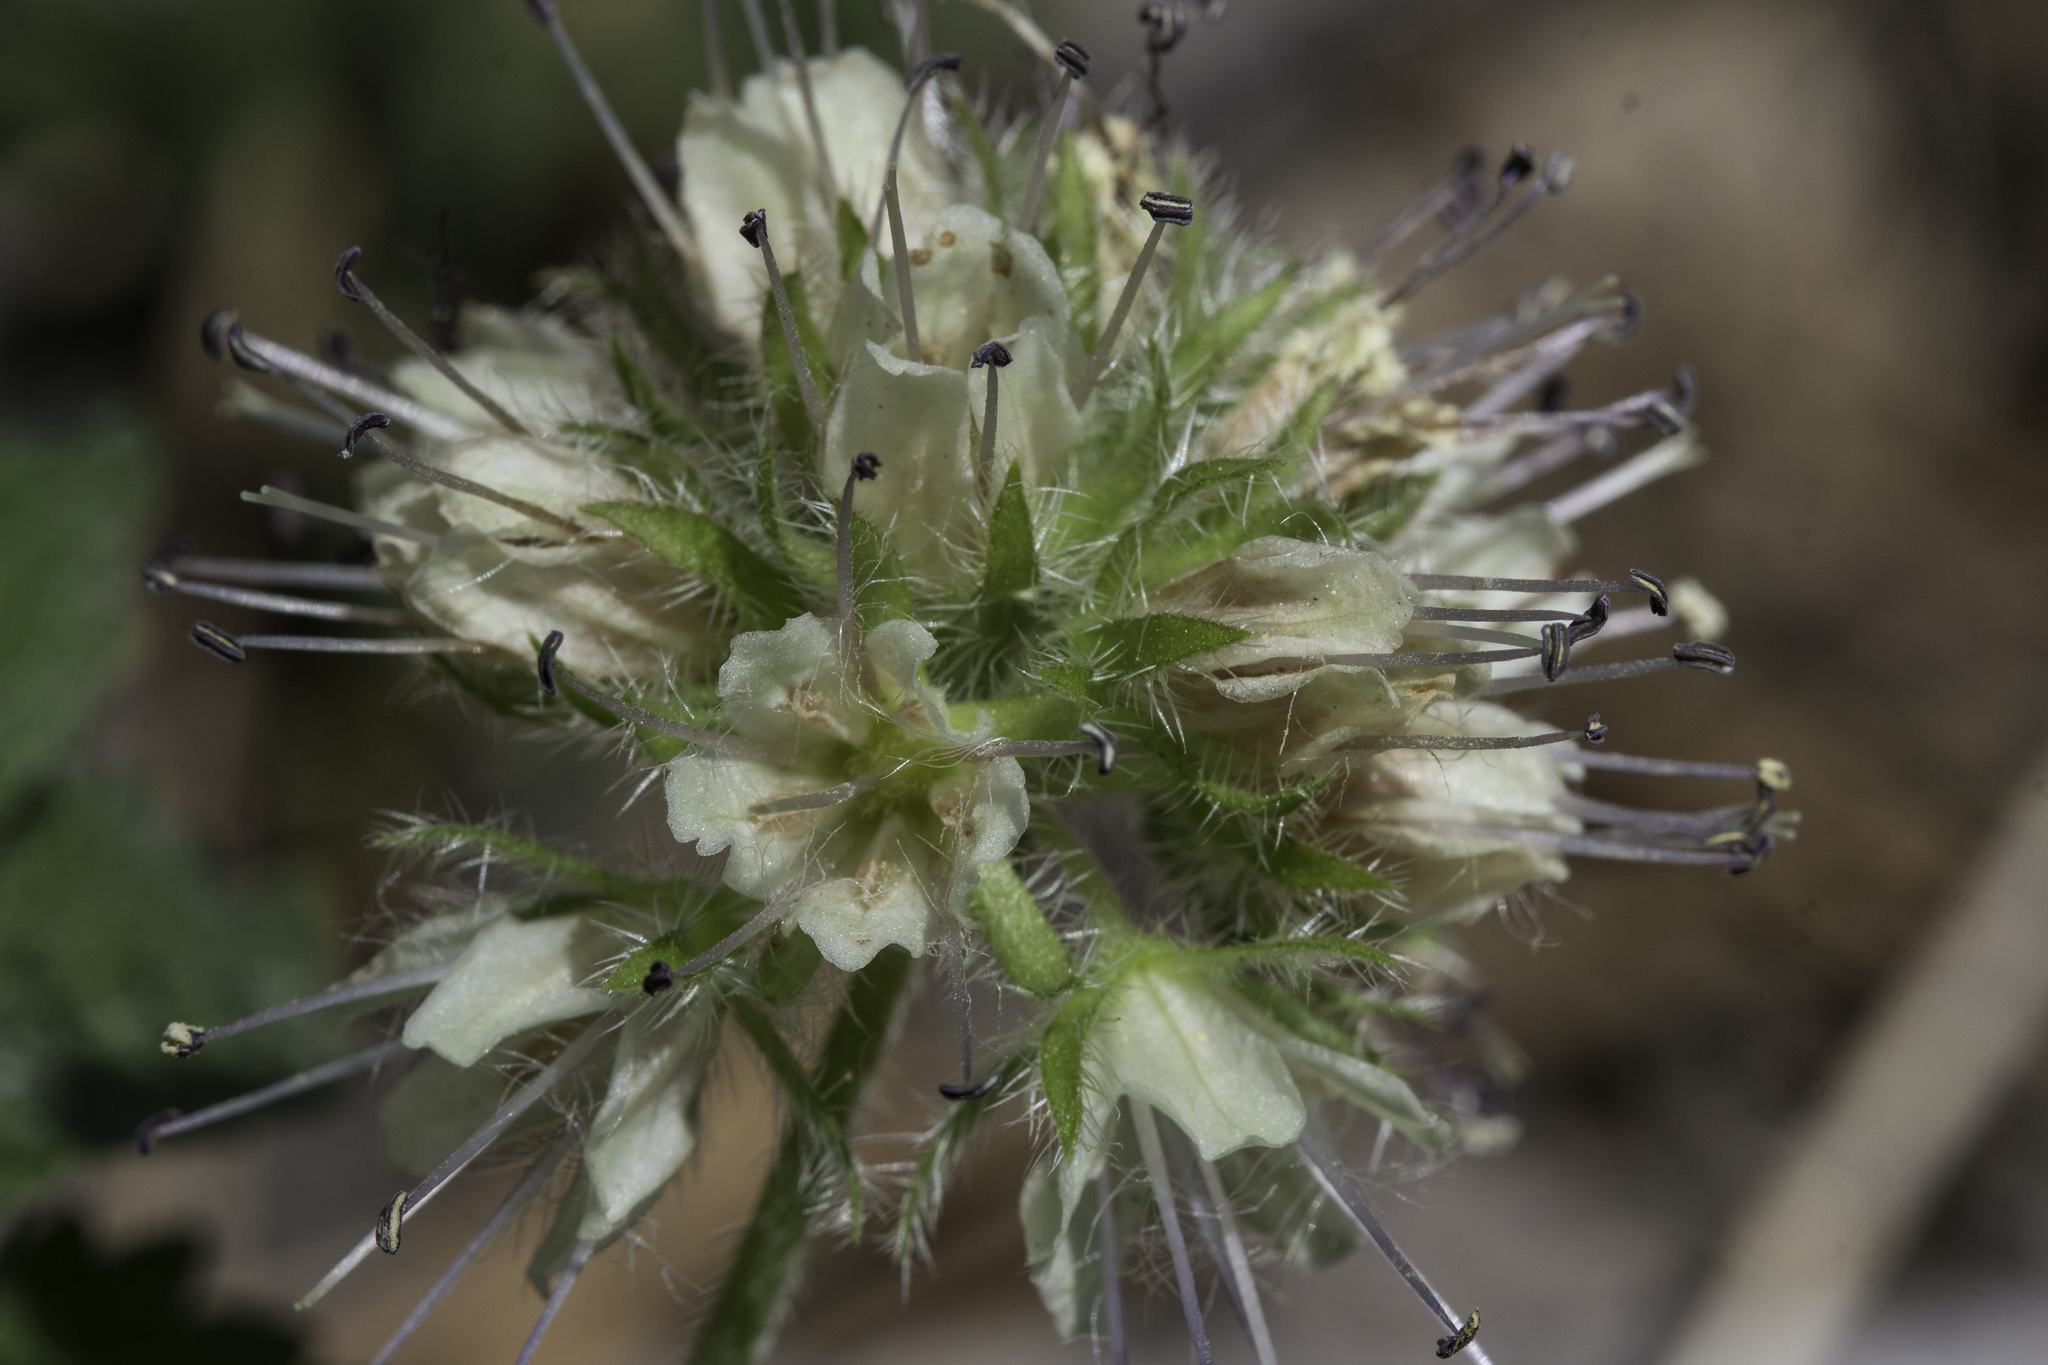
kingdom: Plantae
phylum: Tracheophyta
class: Magnoliopsida
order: Boraginales
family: Hydrophyllaceae
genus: Hydrophyllum
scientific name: Hydrophyllum fendleri
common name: Fendler's waterleaf
